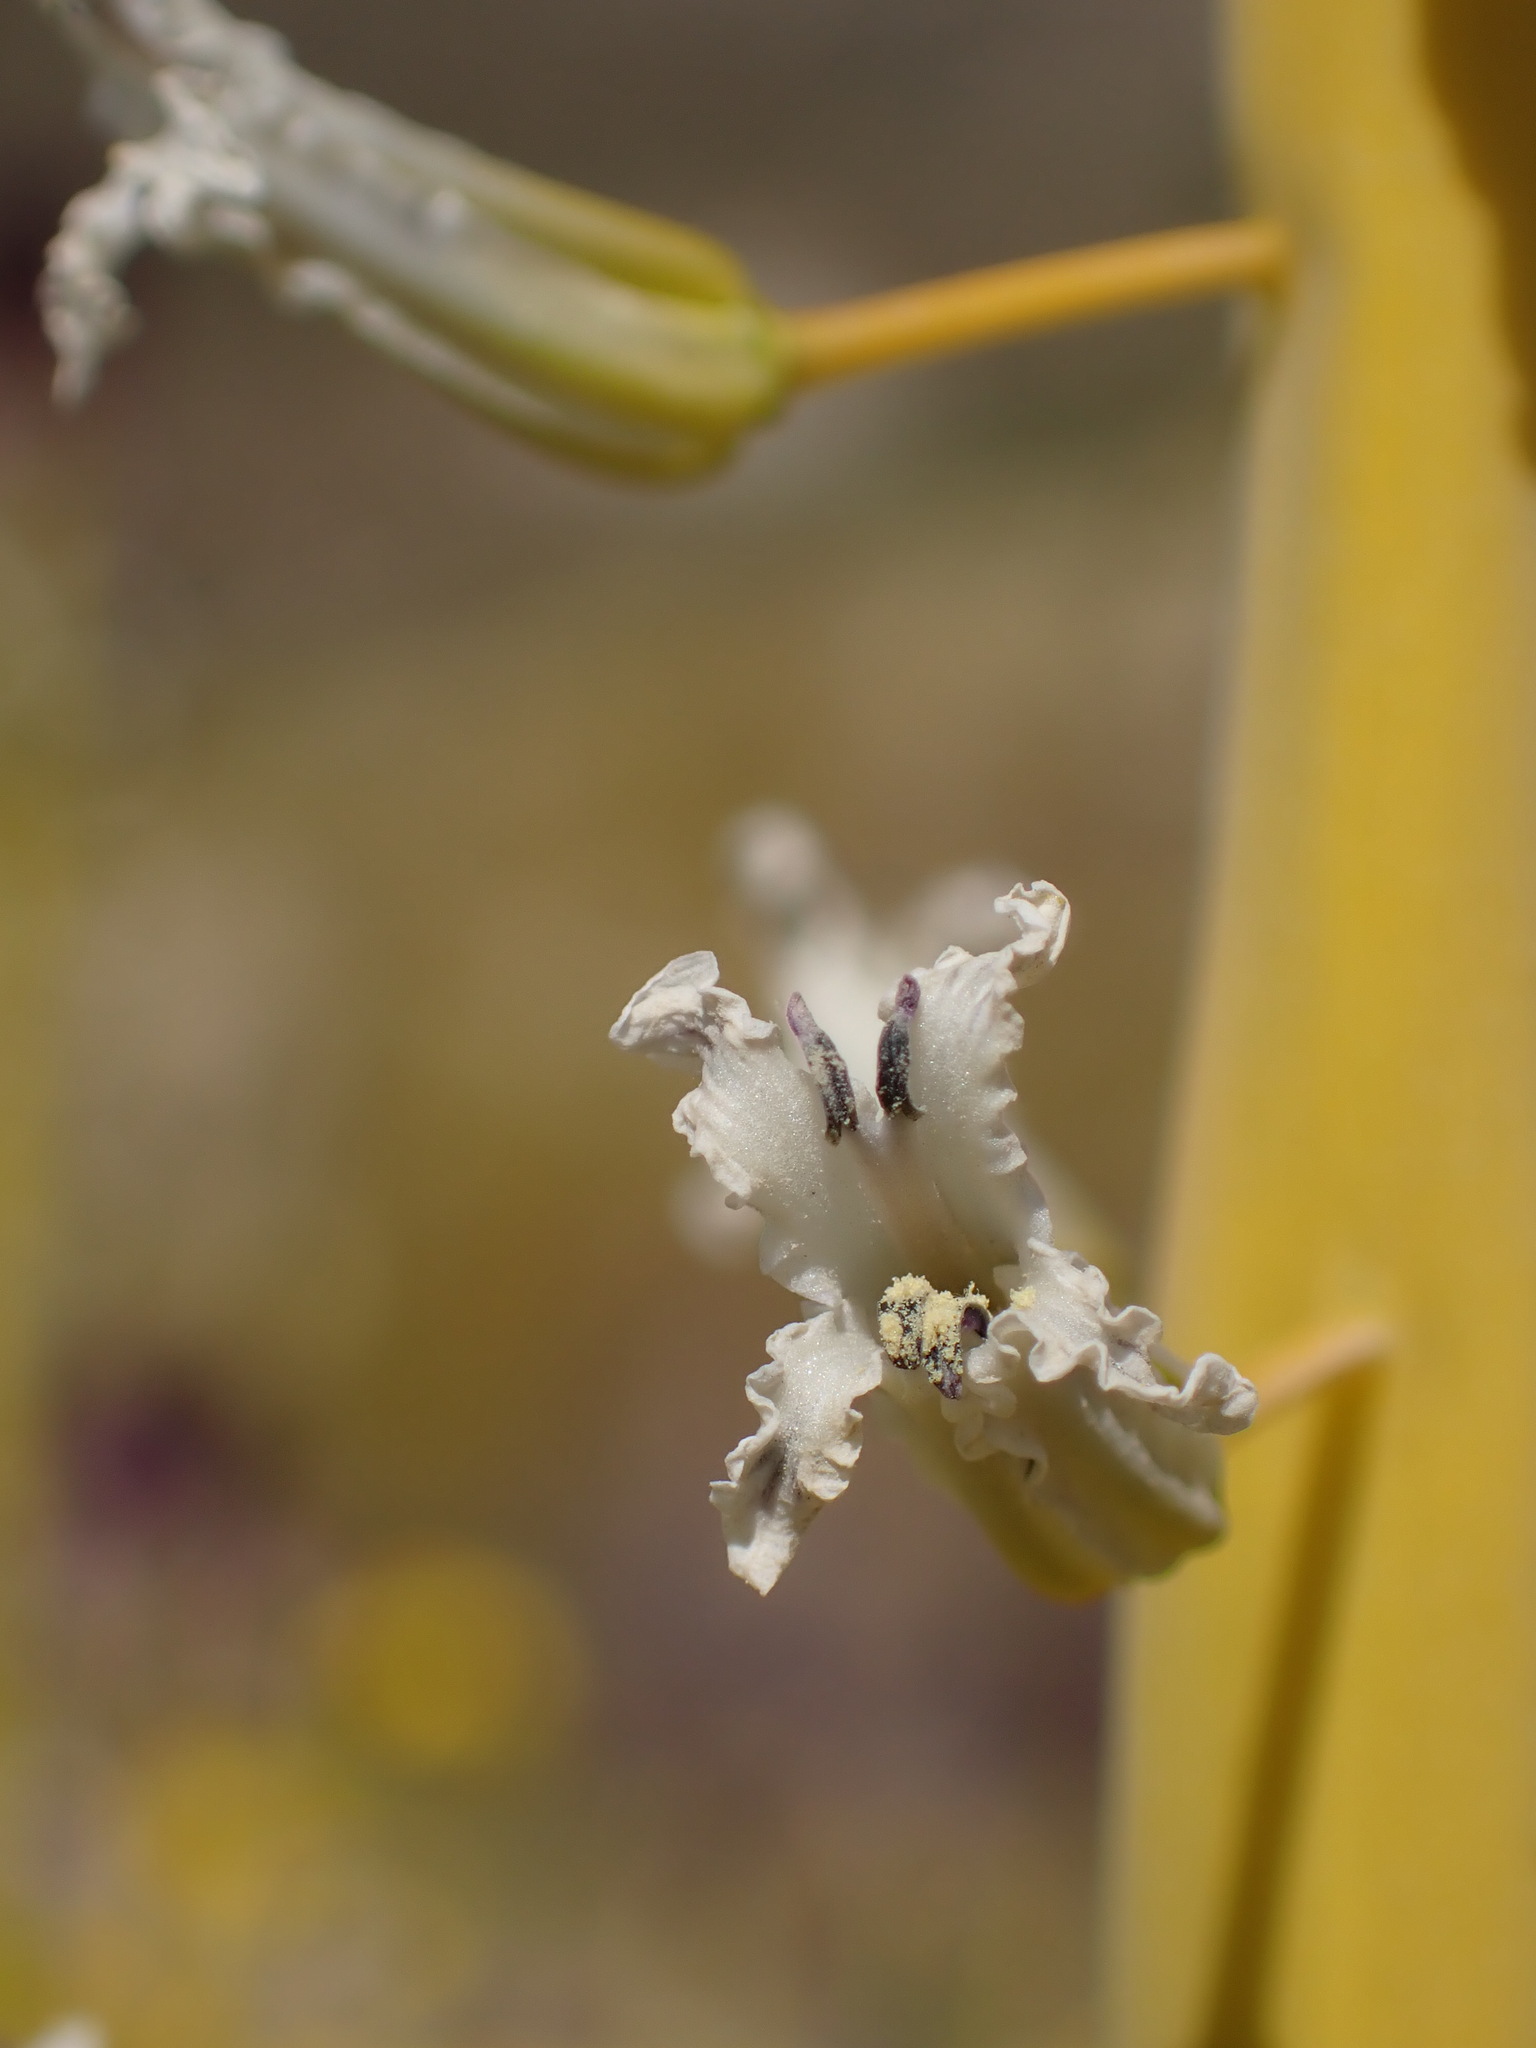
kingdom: Plantae
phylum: Tracheophyta
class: Magnoliopsida
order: Brassicales
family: Brassicaceae
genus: Streptanthus
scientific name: Streptanthus inflatus
